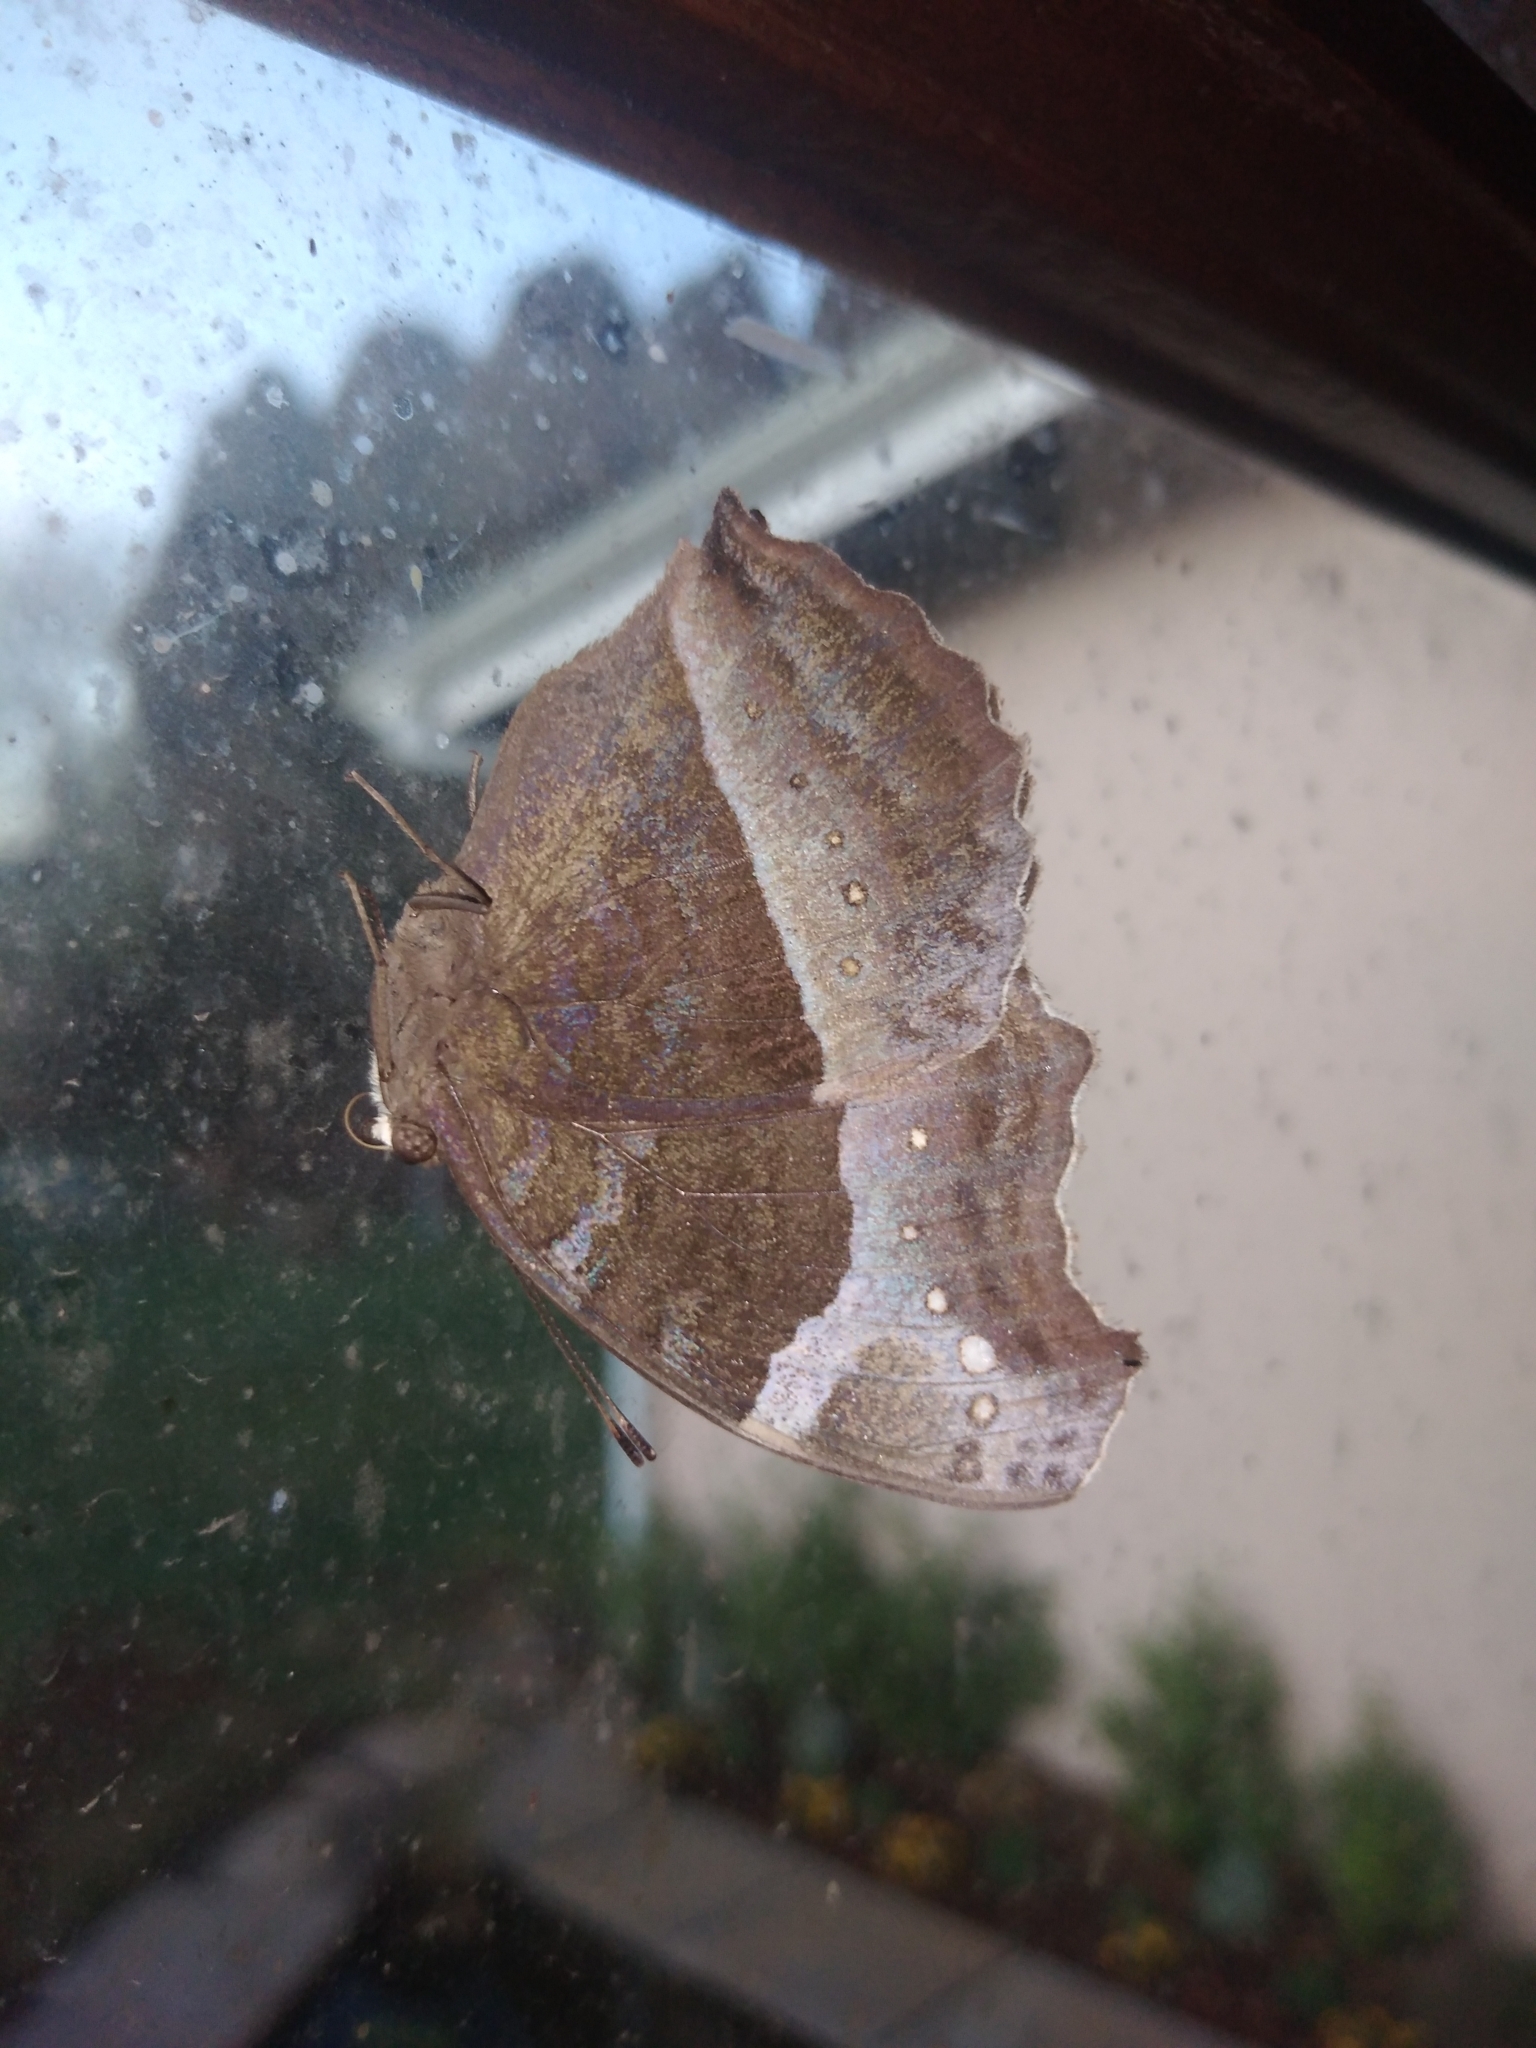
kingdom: Animalia
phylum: Arthropoda
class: Insecta
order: Lepidoptera
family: Nymphalidae
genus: Junonia
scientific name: Junonia archesia
